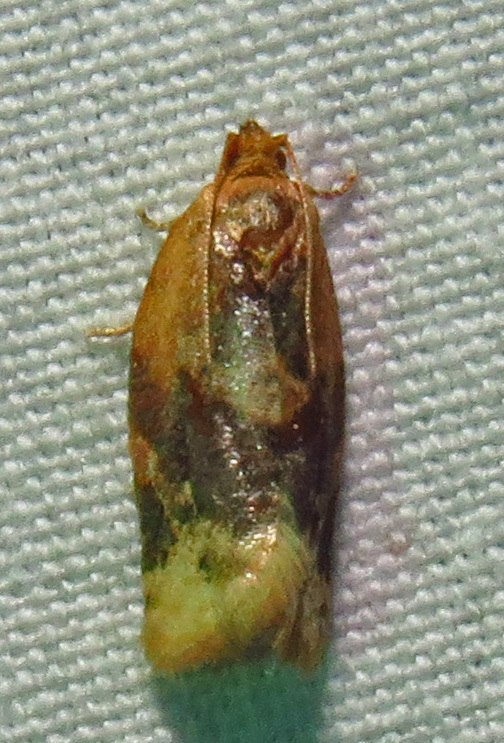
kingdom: Animalia
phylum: Arthropoda
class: Insecta
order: Lepidoptera
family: Tortricidae
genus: Argyrotaenia
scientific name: Argyrotaenia velutinana
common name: Red-banded leafroller moth
